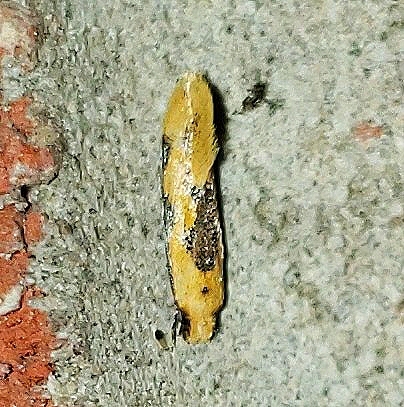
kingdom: Animalia
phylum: Arthropoda
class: Insecta
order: Lepidoptera
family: Meessiidae
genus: Hybroma
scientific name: Hybroma servulella
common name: Yellow wave moth
